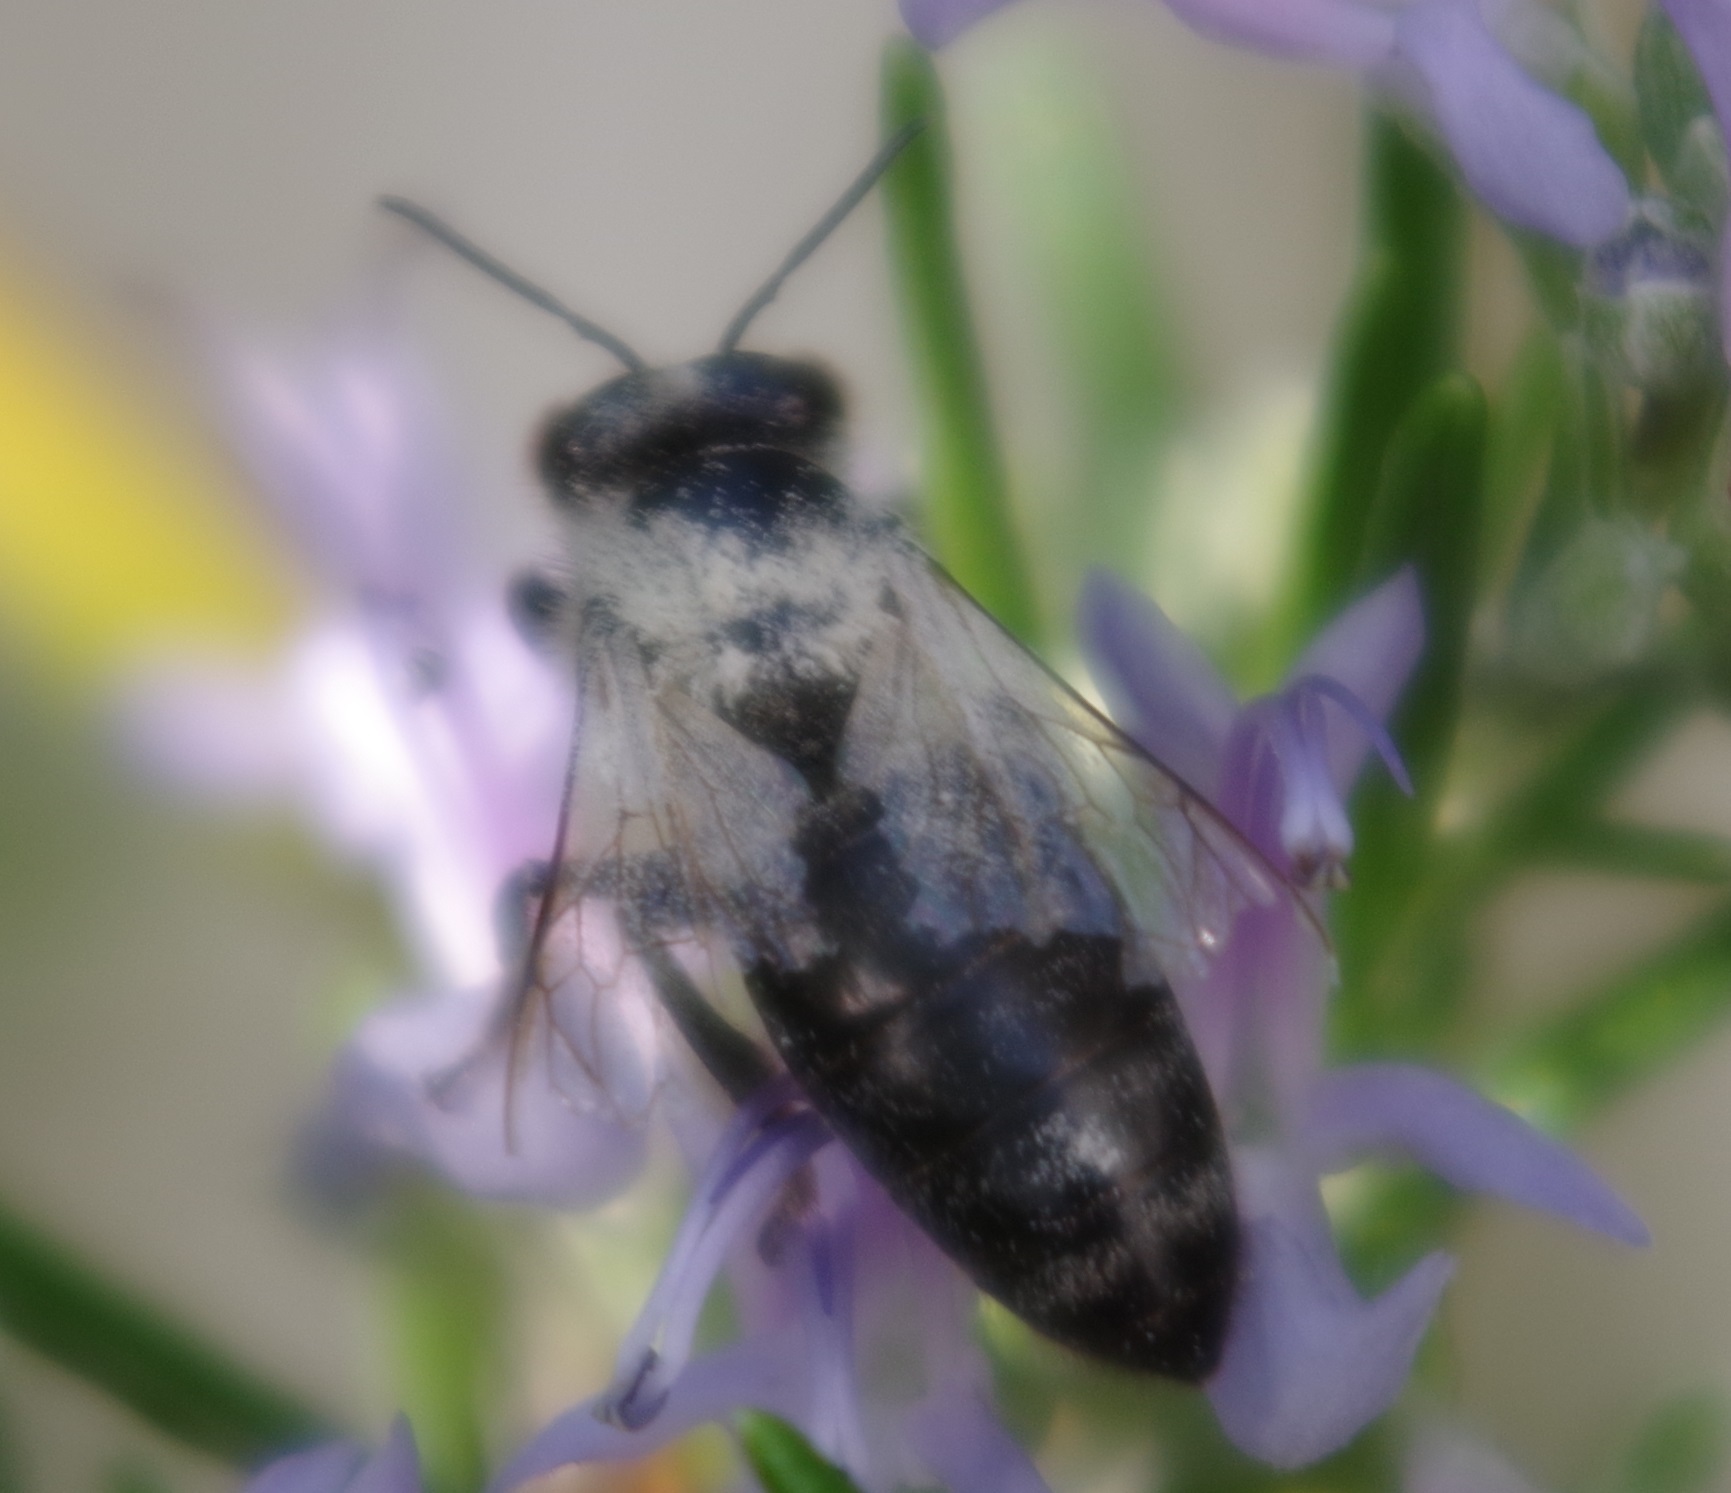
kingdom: Animalia
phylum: Arthropoda
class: Insecta
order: Hymenoptera
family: Apidae
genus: Apis
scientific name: Apis mellifera
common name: Honey bee
